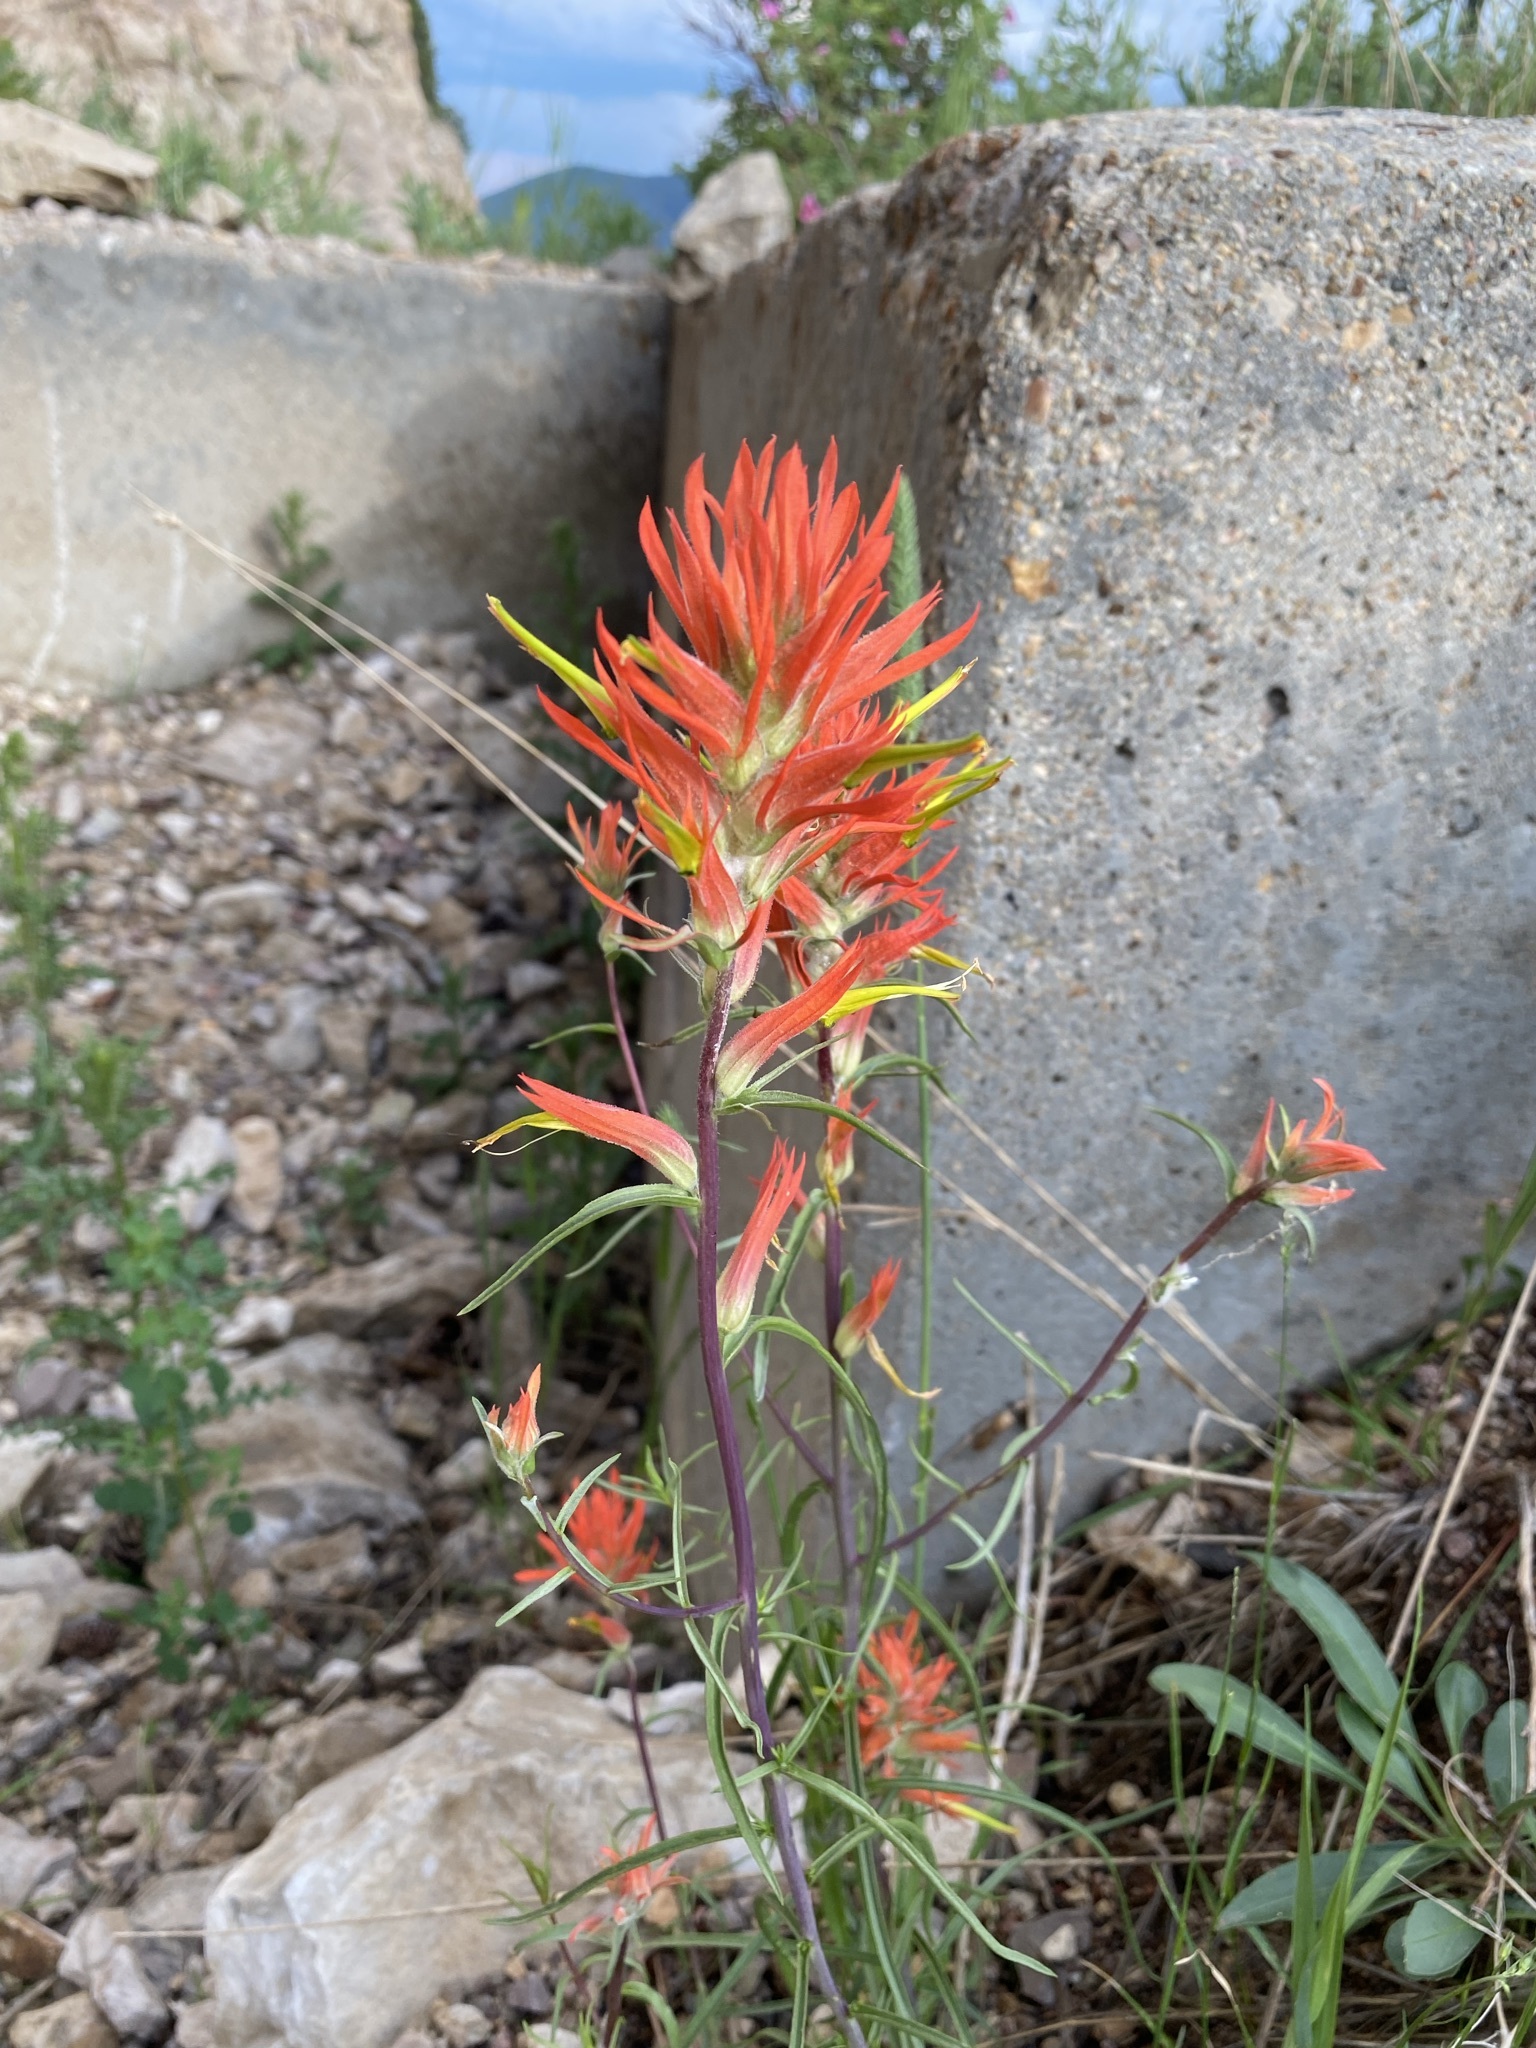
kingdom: Plantae
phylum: Tracheophyta
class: Magnoliopsida
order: Lamiales
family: Orobanchaceae
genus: Castilleja
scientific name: Castilleja linariifolia
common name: Wyoming paintbrush
